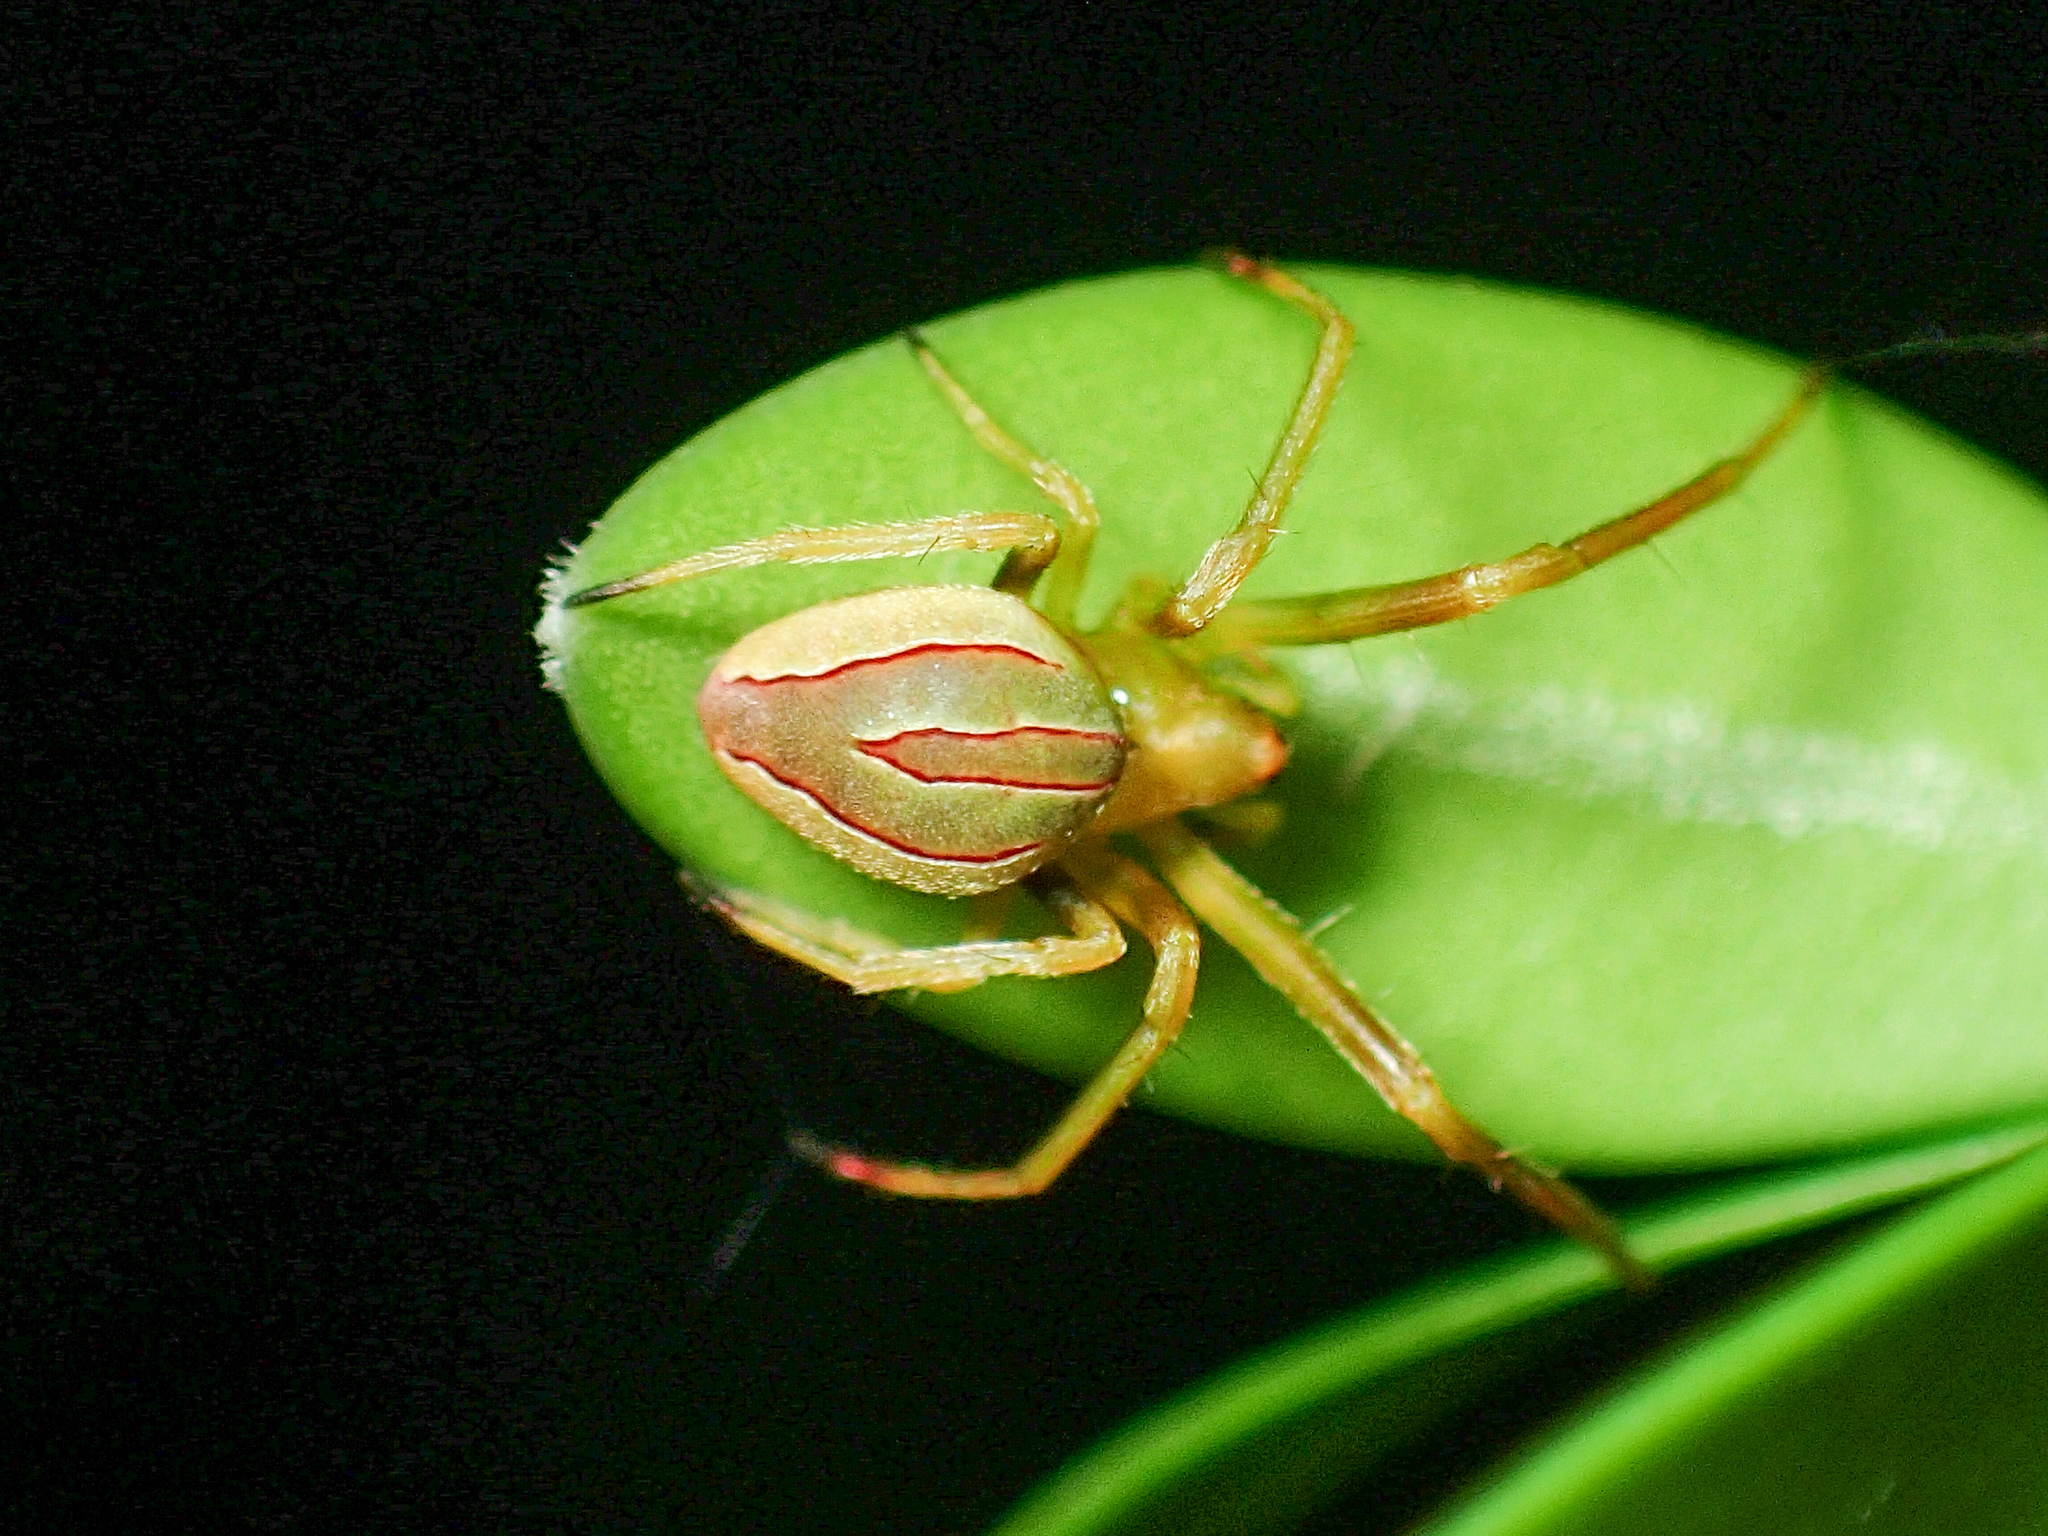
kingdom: Animalia
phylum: Arthropoda
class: Arachnida
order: Araneae
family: Araneidae
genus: Acacesia
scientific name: Acacesia hamata
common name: Orb weavers
